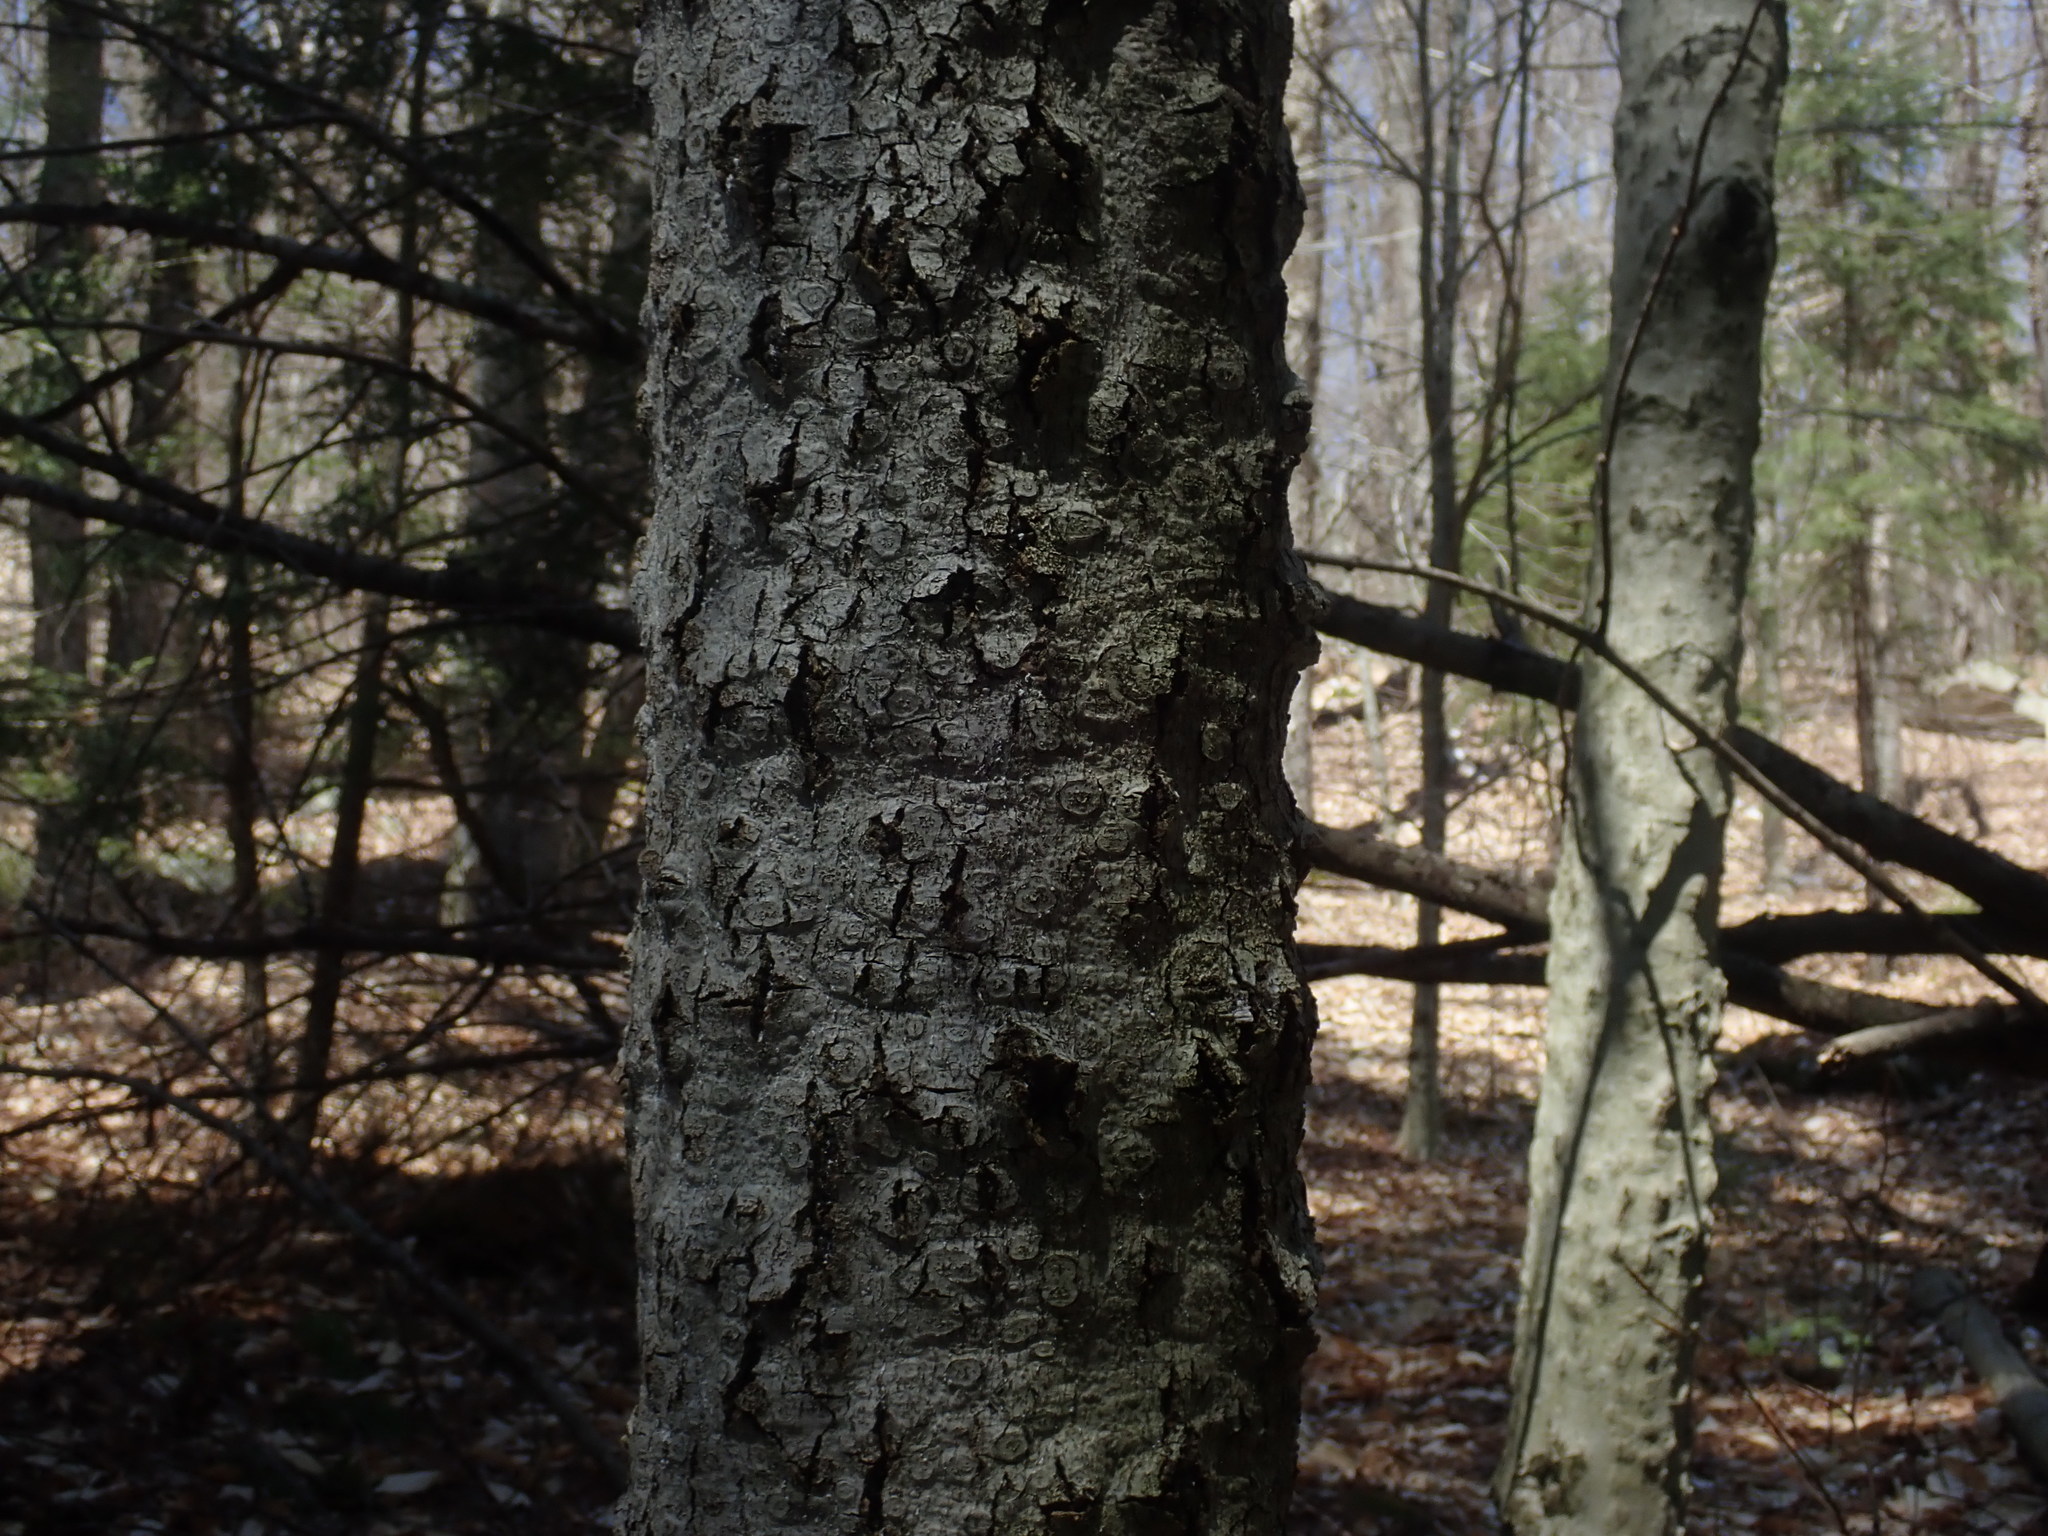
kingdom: Fungi
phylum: Ascomycota
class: Sordariomycetes
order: Hypocreales
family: Nectriaceae
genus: Neonectria
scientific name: Neonectria faginata
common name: Beech bark canker
